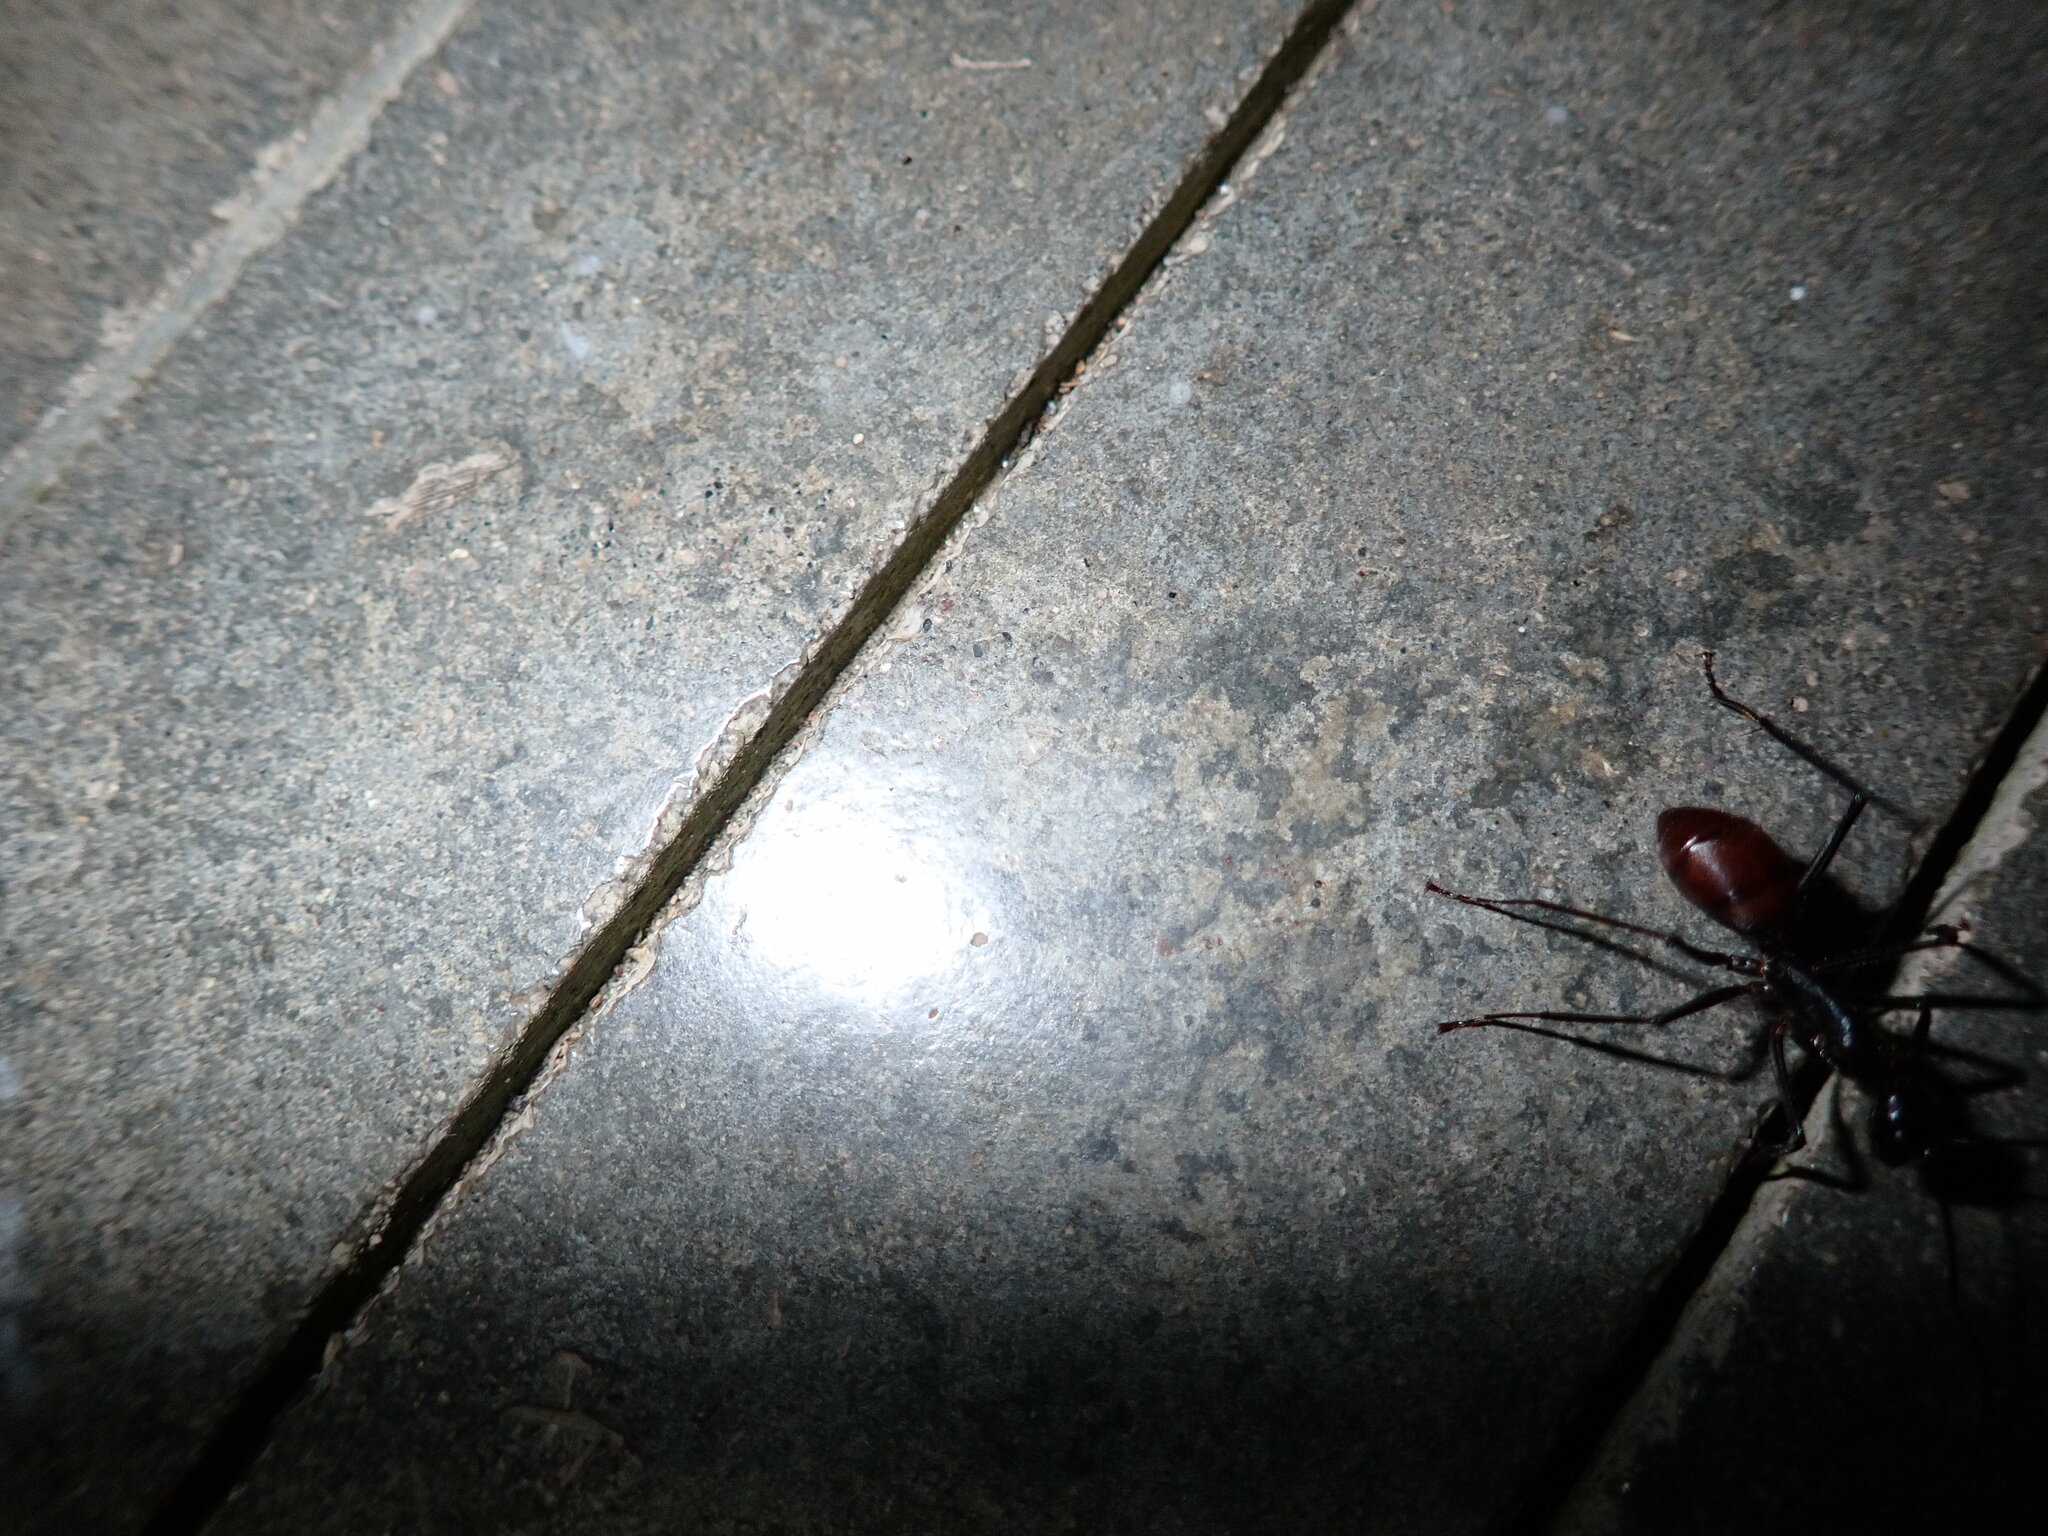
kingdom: Animalia
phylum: Arthropoda
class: Insecta
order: Hymenoptera
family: Formicidae
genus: Dinomyrmex
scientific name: Dinomyrmex
